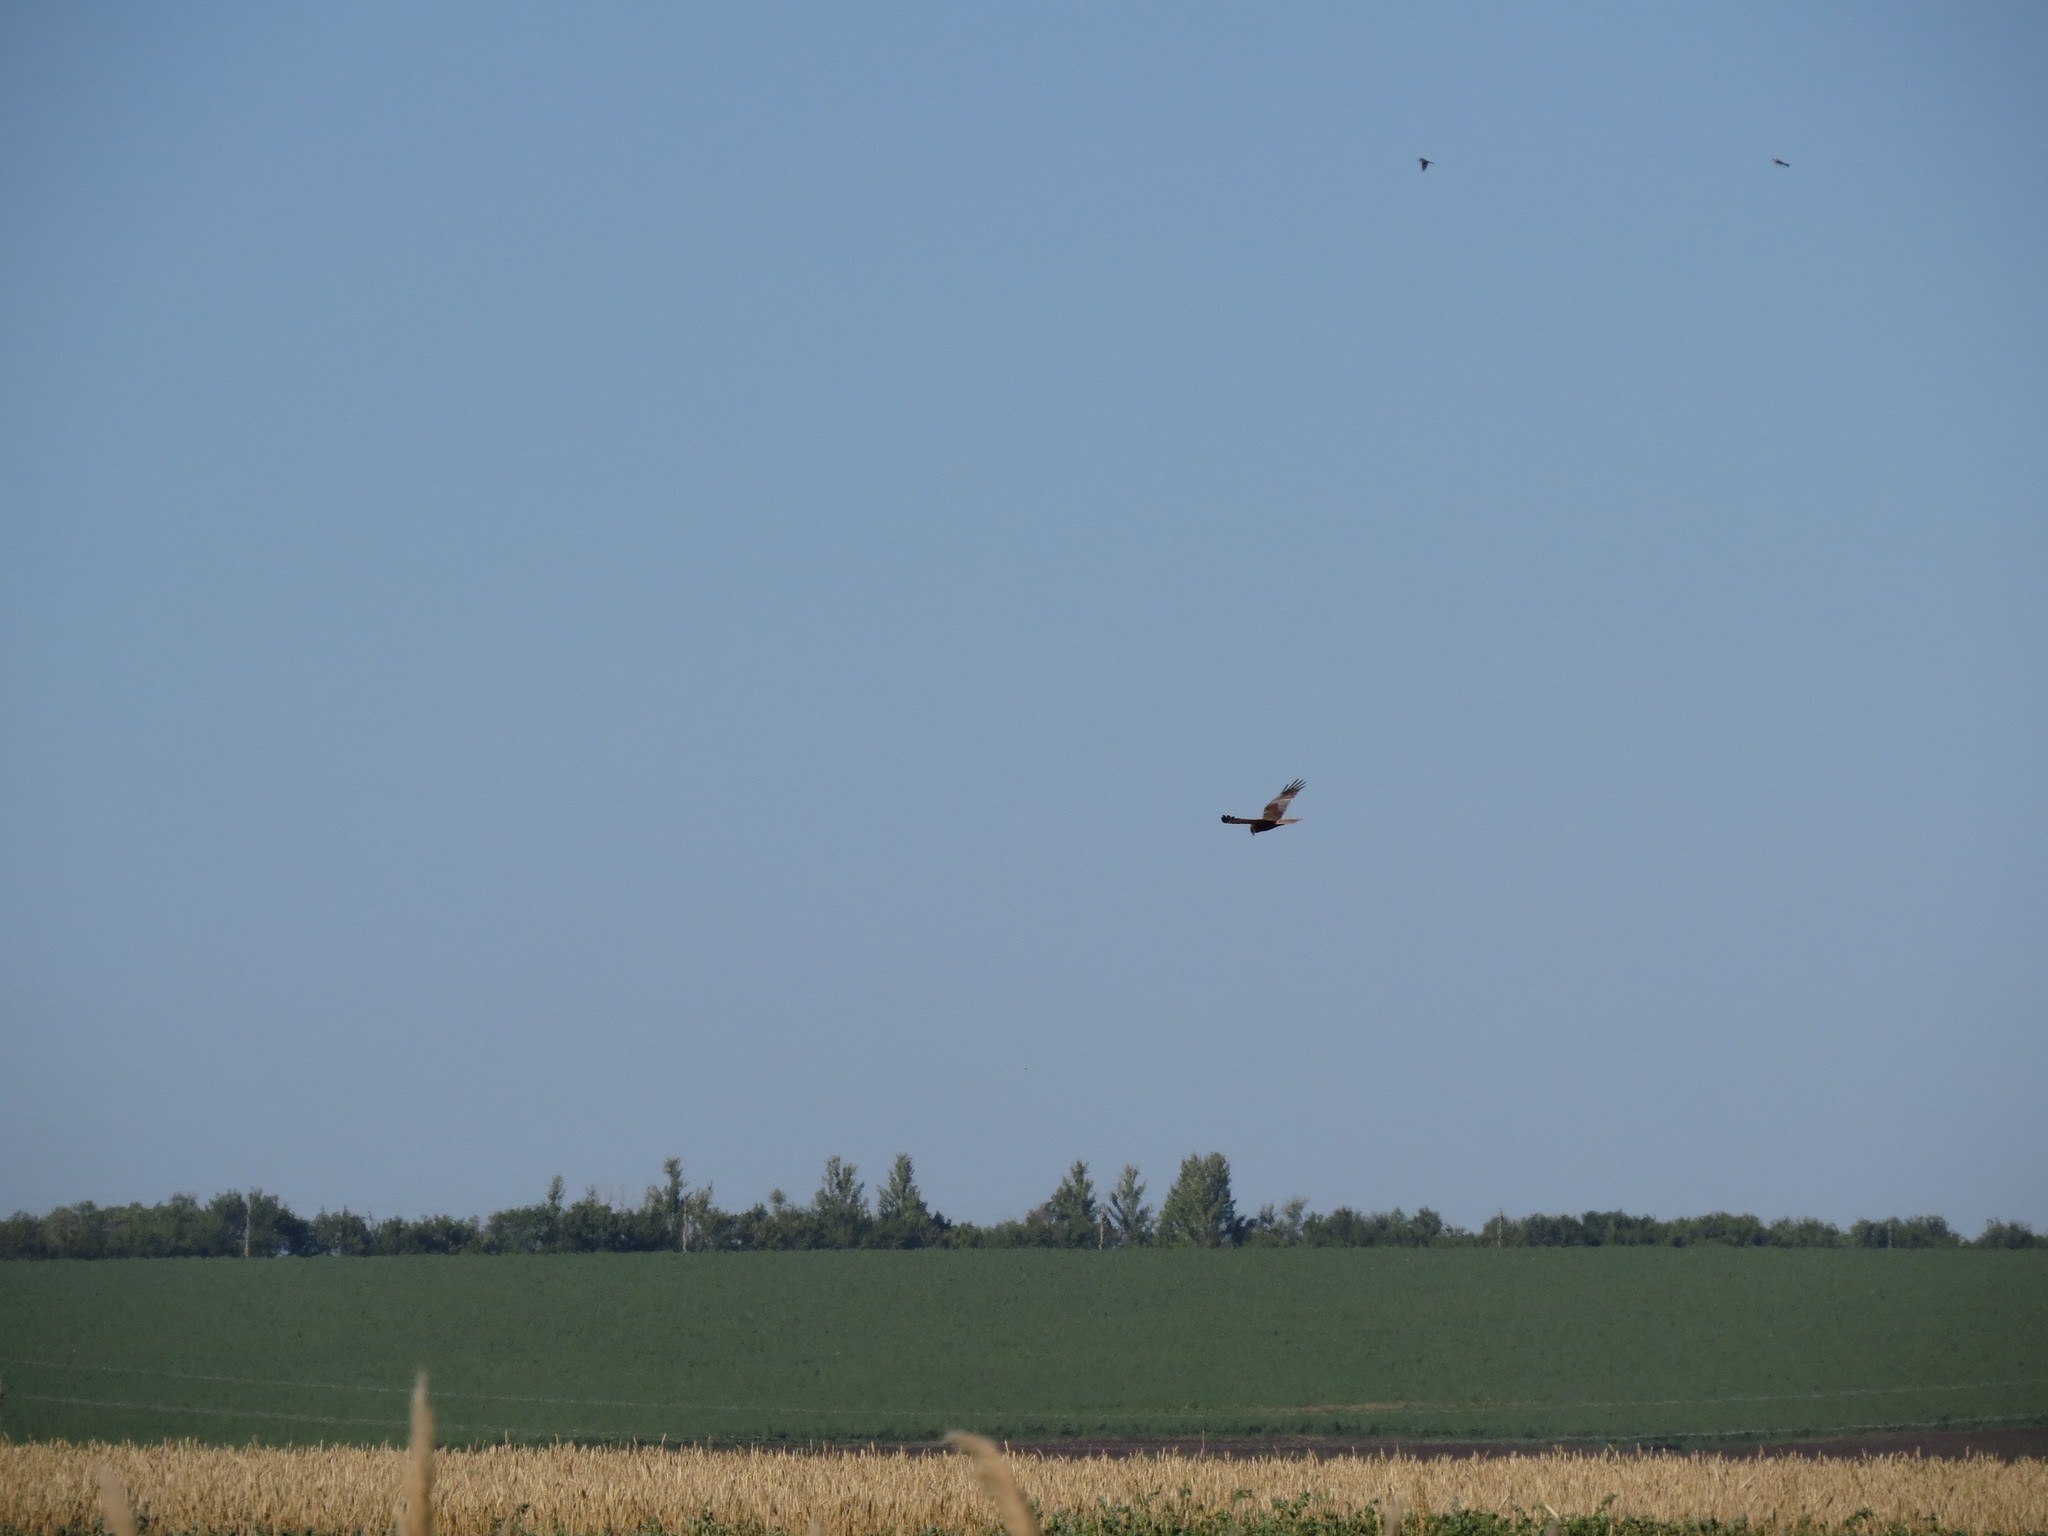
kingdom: Animalia
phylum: Chordata
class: Aves
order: Accipitriformes
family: Accipitridae
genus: Circus
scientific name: Circus aeruginosus
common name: Western marsh harrier
